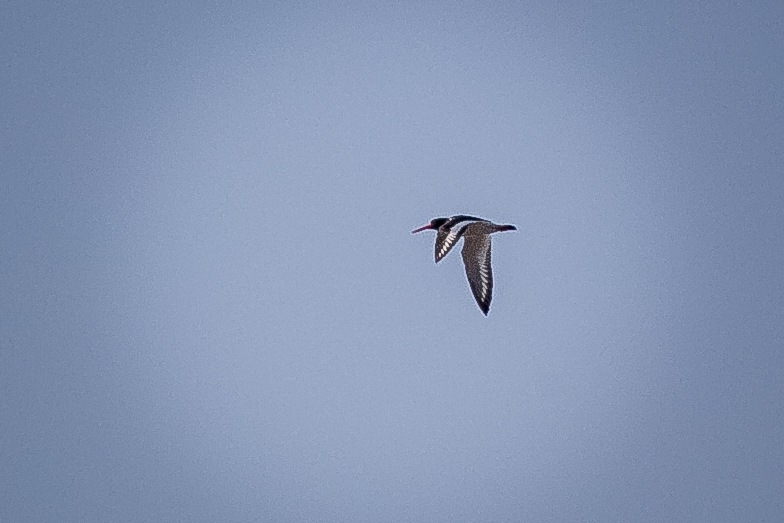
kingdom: Animalia
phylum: Chordata
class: Aves
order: Charadriiformes
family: Haematopodidae
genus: Haematopus
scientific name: Haematopus ostralegus
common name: Eurasian oystercatcher
